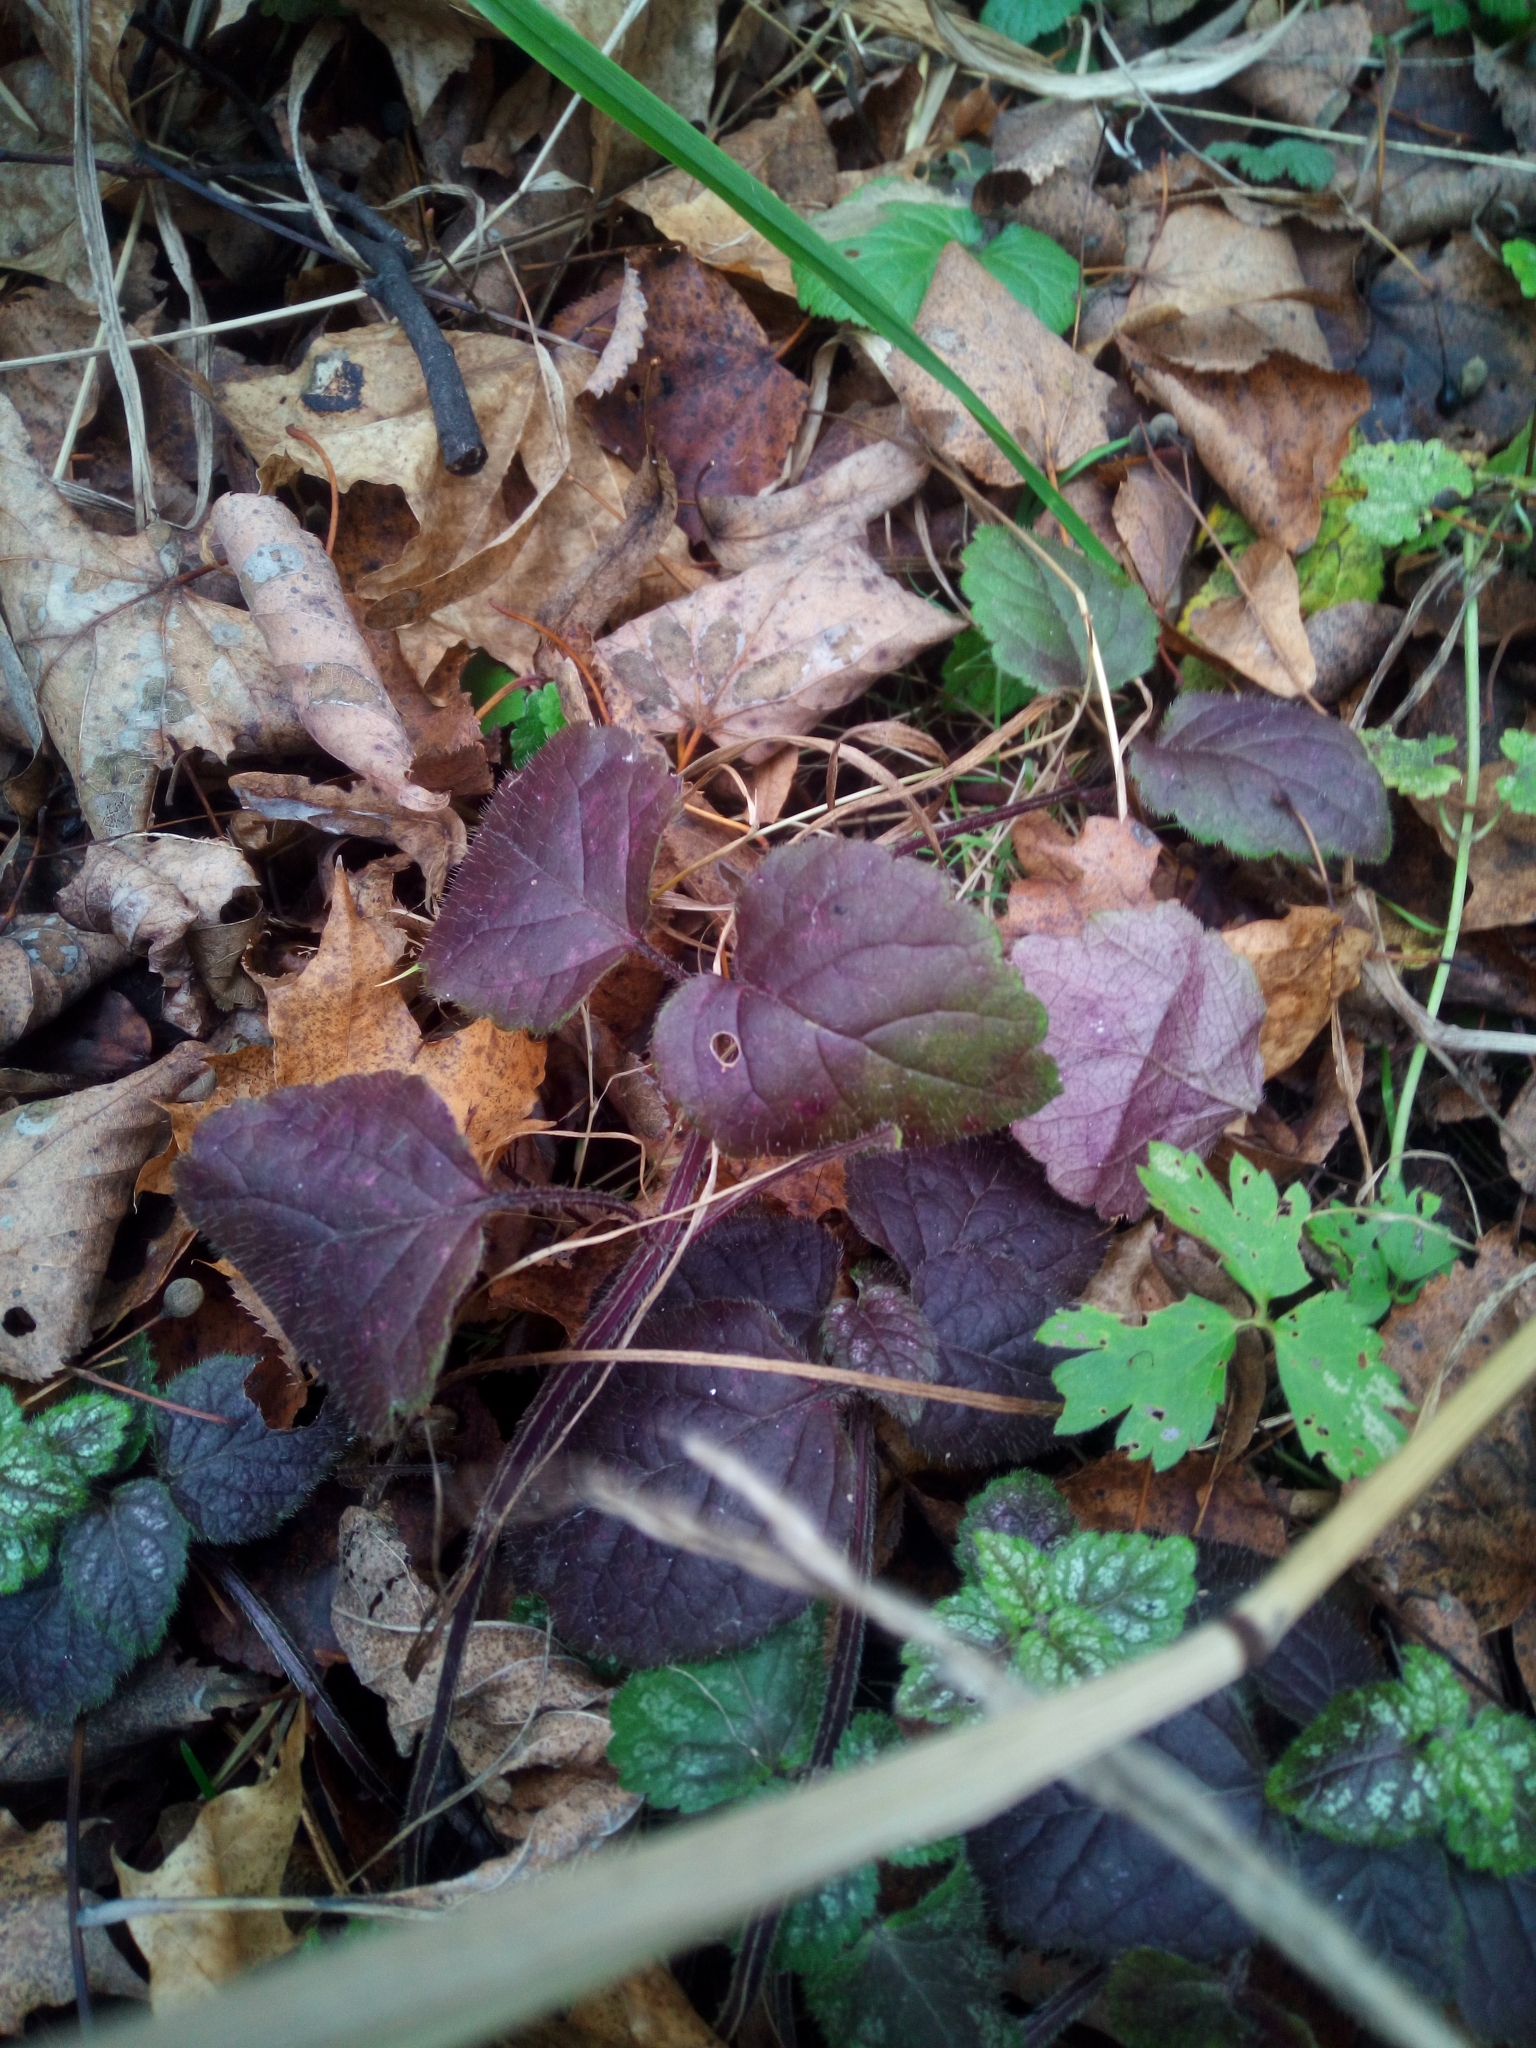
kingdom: Plantae
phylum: Tracheophyta
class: Magnoliopsida
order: Lamiales
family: Lamiaceae
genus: Lamium
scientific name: Lamium galeobdolon
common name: Yellow archangel
